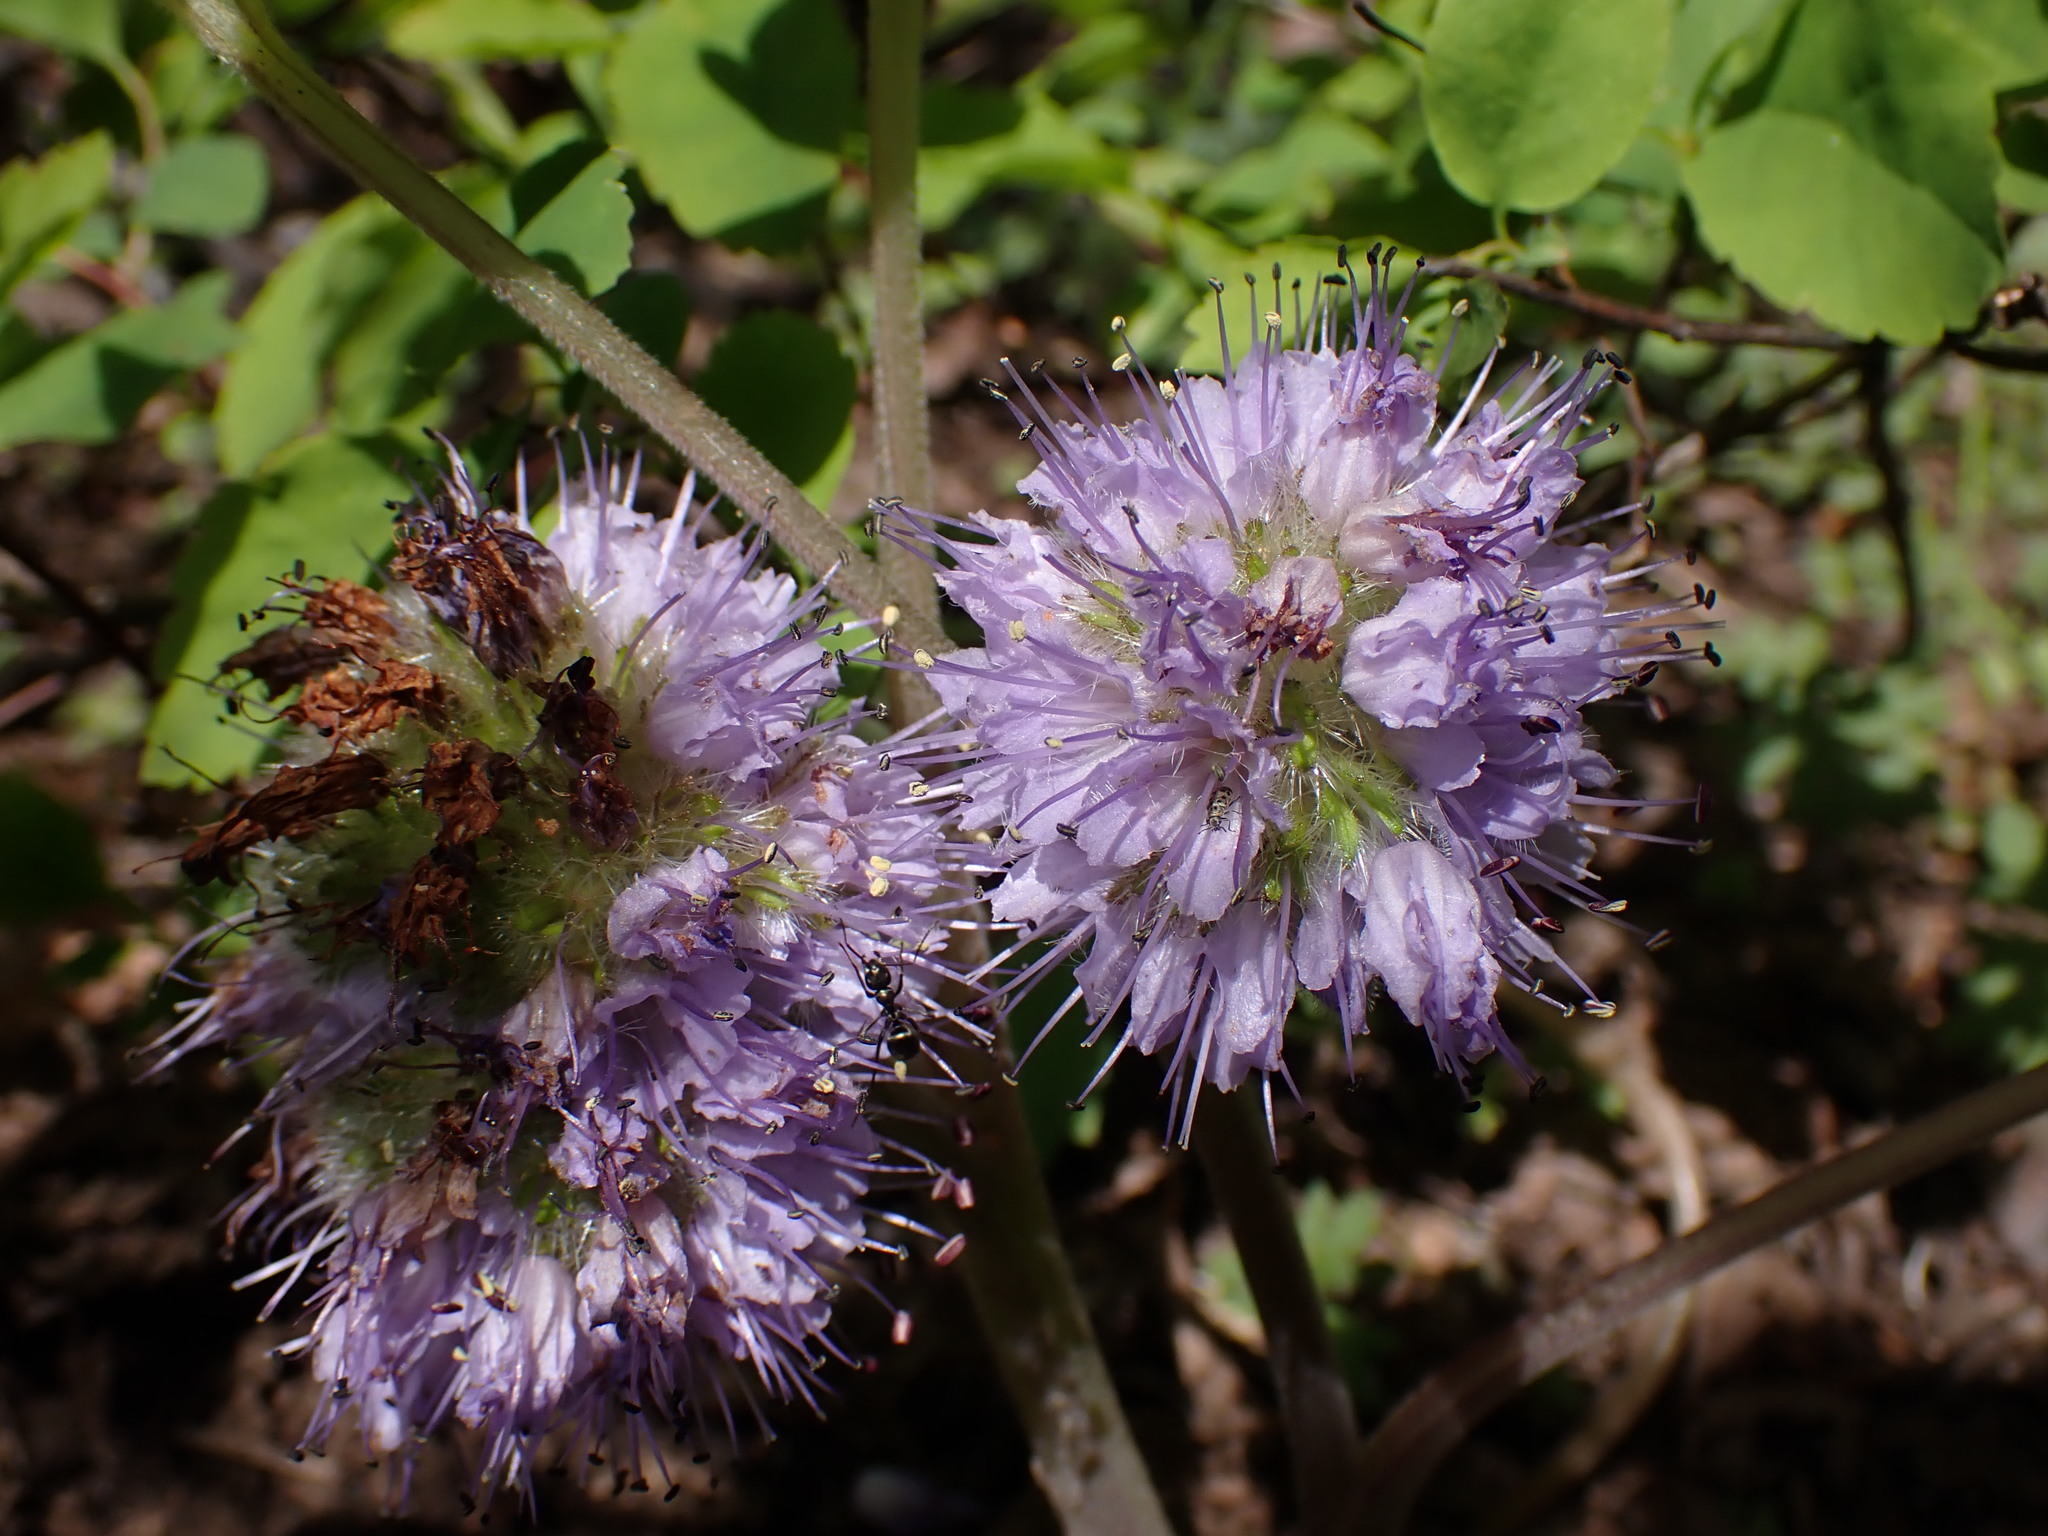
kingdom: Plantae
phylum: Tracheophyta
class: Magnoliopsida
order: Boraginales
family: Hydrophyllaceae
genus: Hydrophyllum
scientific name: Hydrophyllum capitatum
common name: Woollen-breeches
